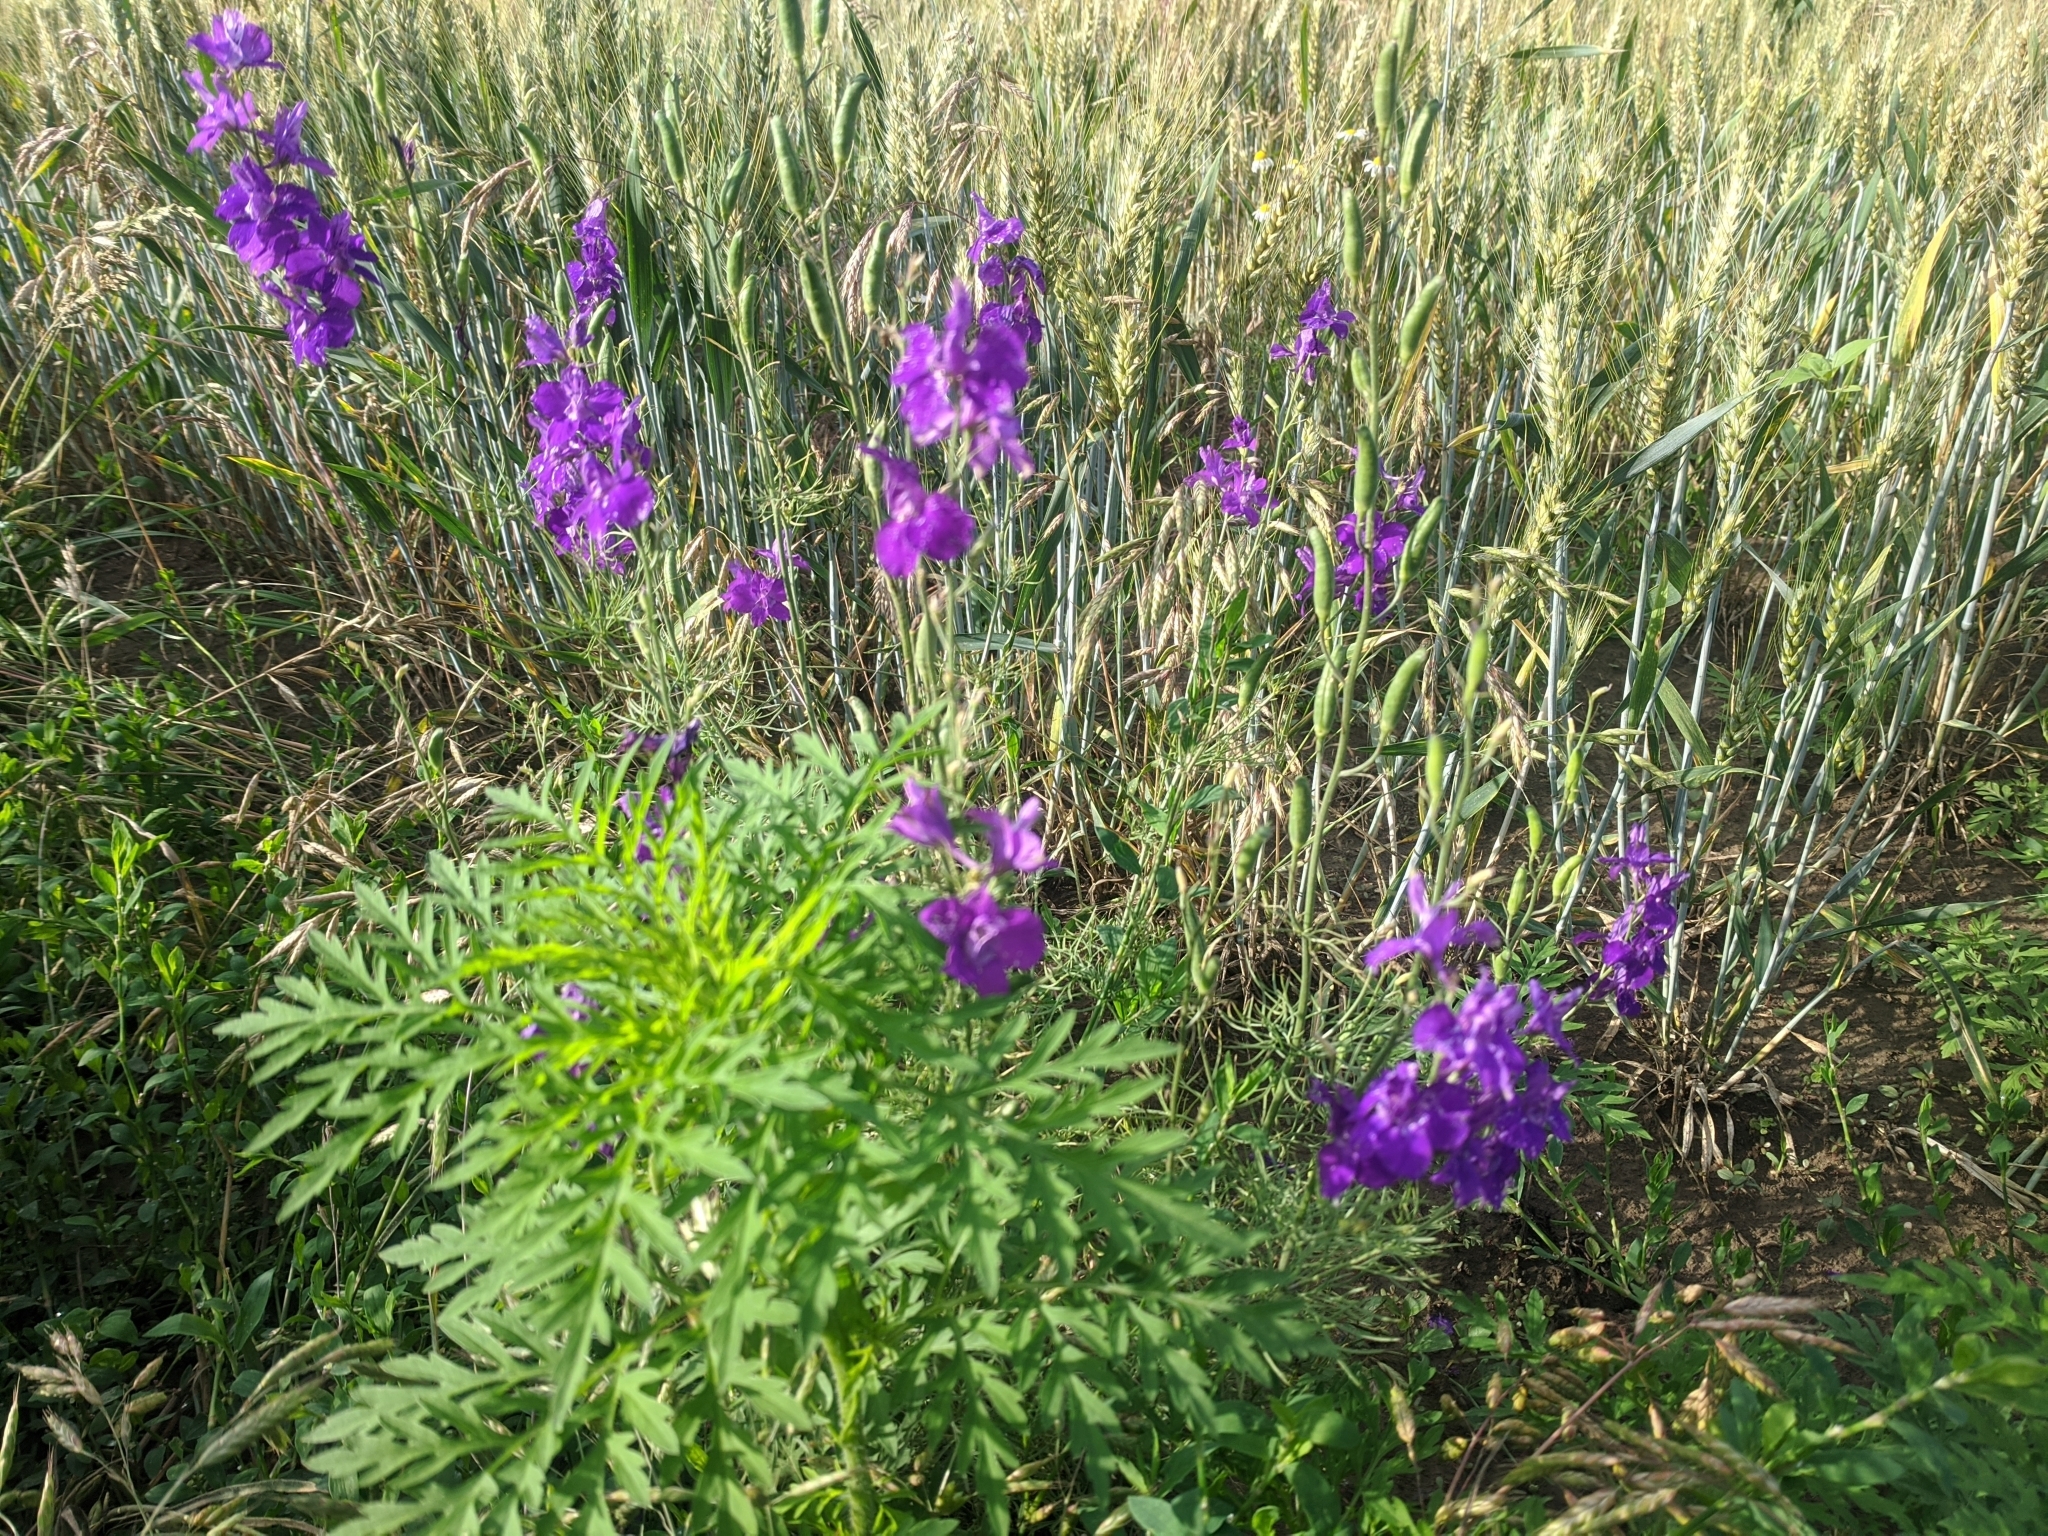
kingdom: Plantae
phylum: Tracheophyta
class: Magnoliopsida
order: Ranunculales
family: Ranunculaceae
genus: Delphinium
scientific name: Delphinium ajacis
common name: Doubtful knight's-spur
